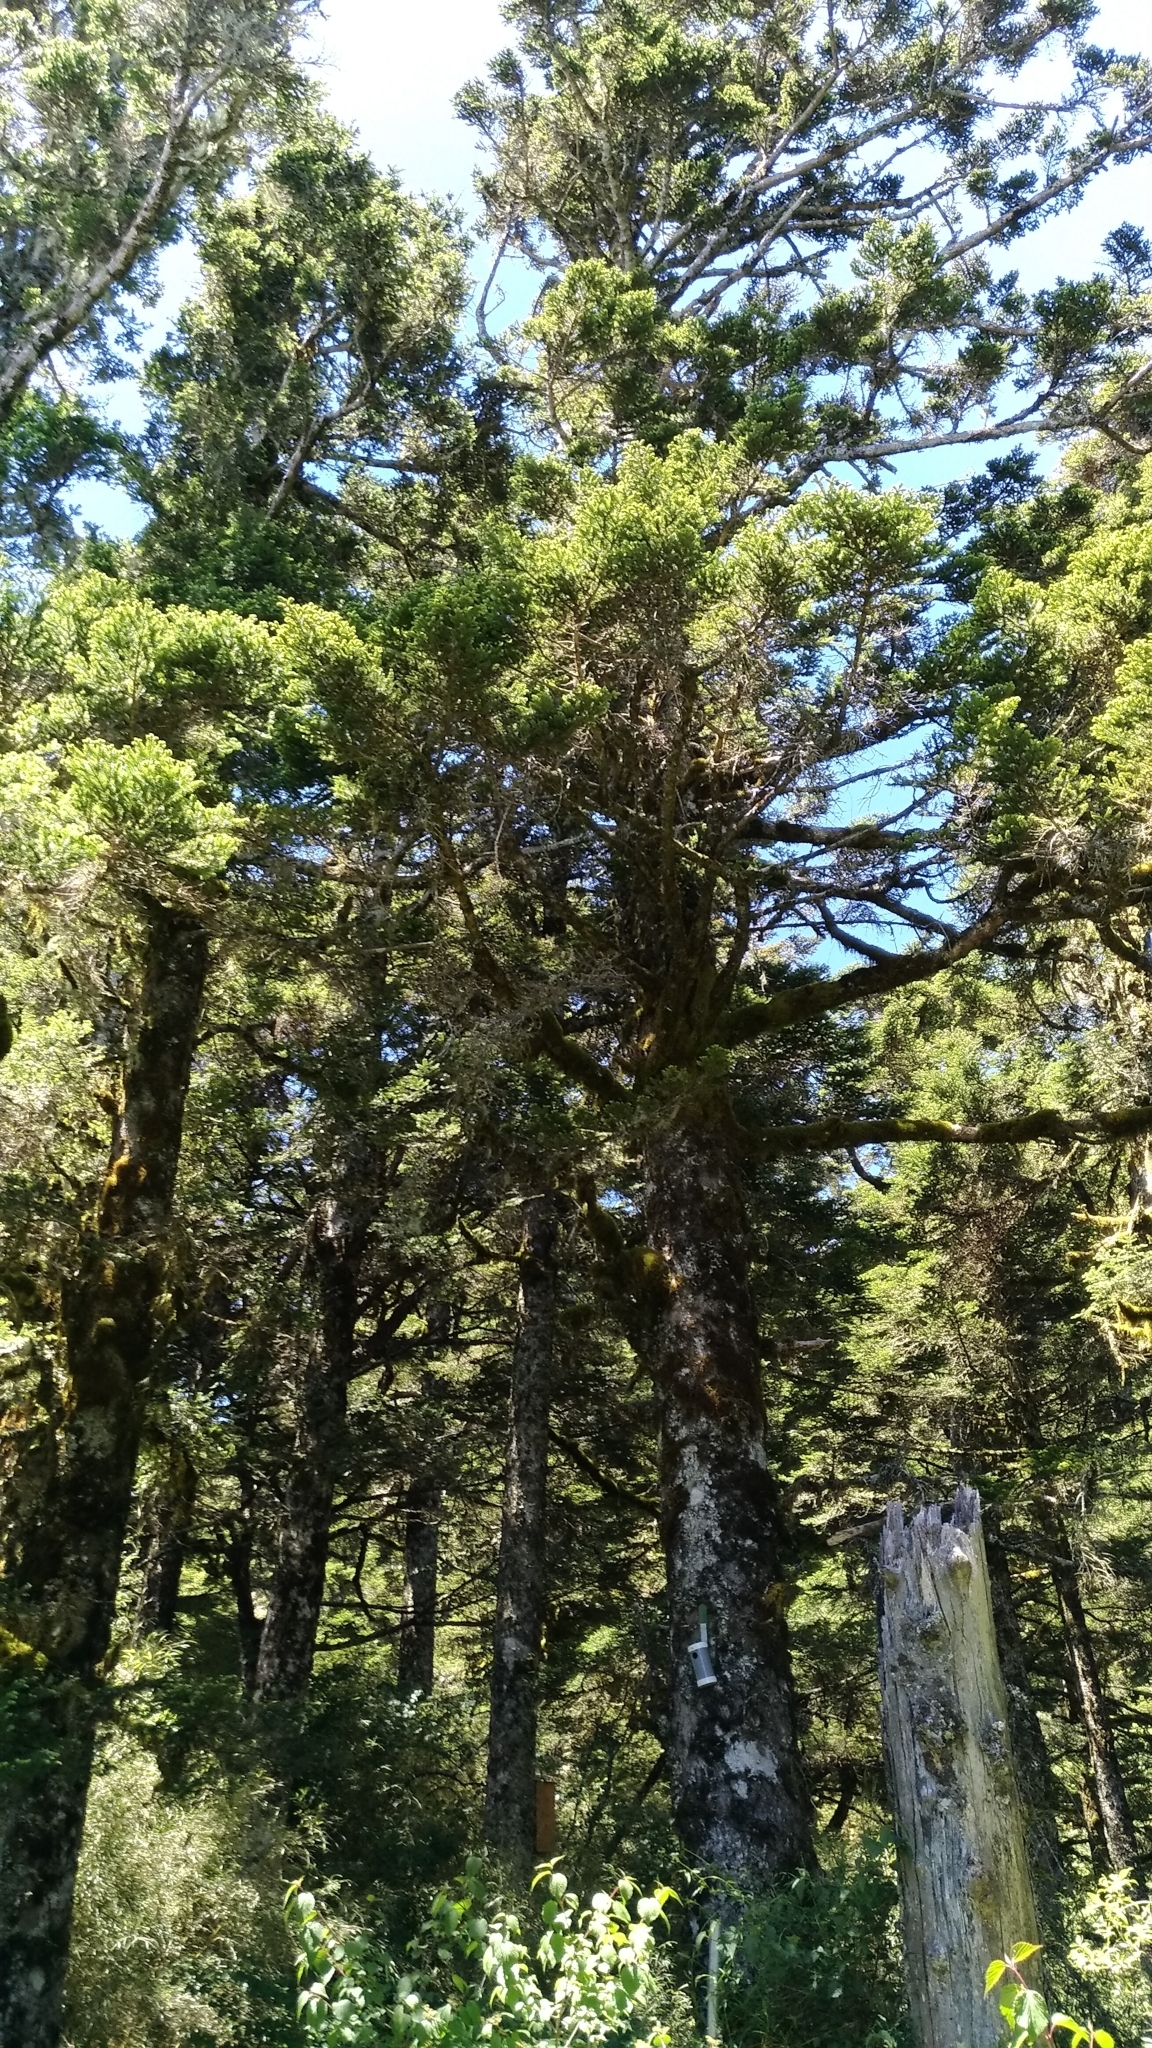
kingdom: Plantae
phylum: Tracheophyta
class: Pinopsida
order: Pinales
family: Pinaceae
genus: Abies
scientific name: Abies kawakamii
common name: Taiwan fir
